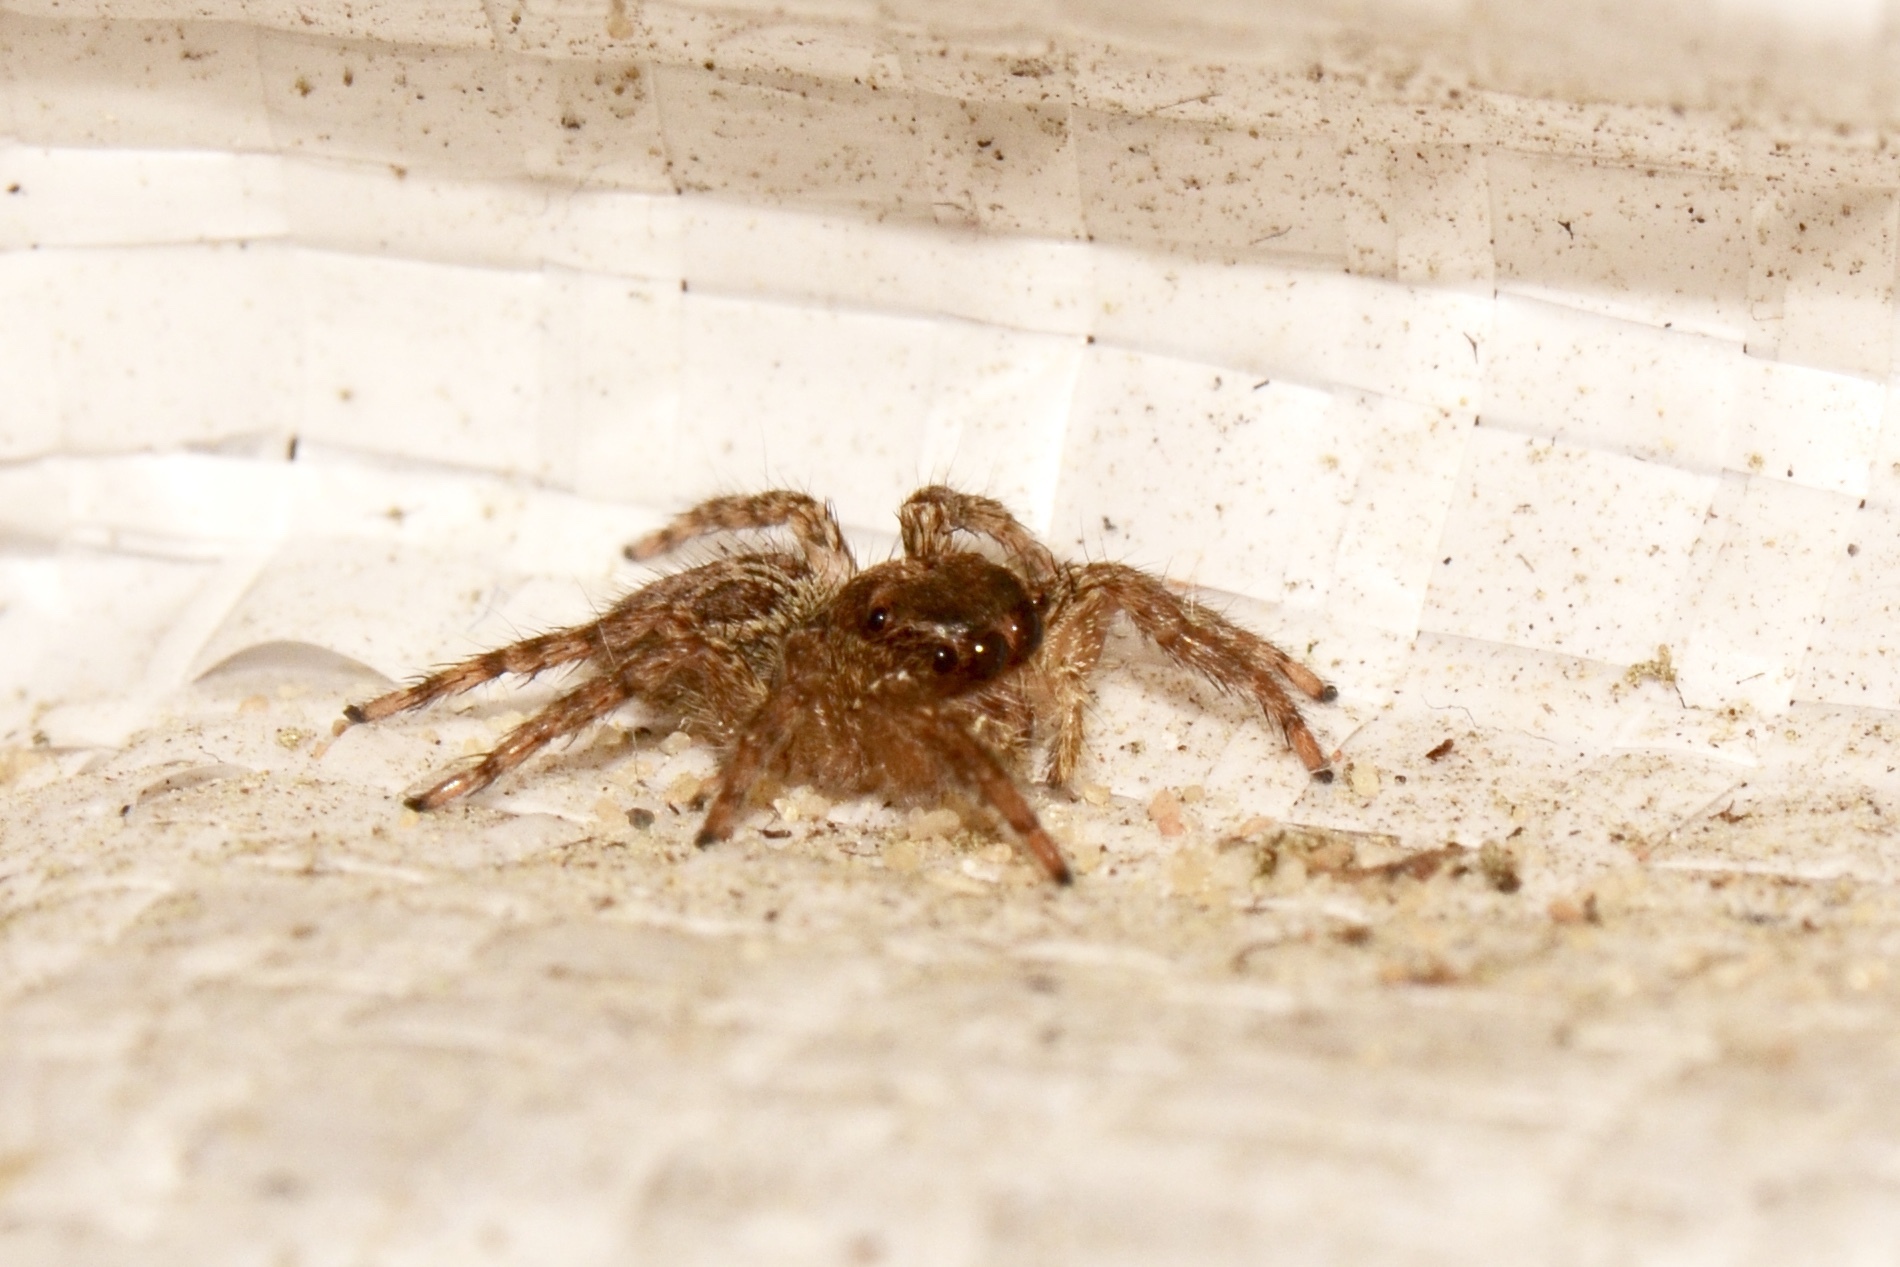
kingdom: Animalia
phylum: Arthropoda
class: Arachnida
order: Araneae
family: Salticidae
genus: Plexippus
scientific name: Plexippus paykulli
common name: Pantropical jumper
